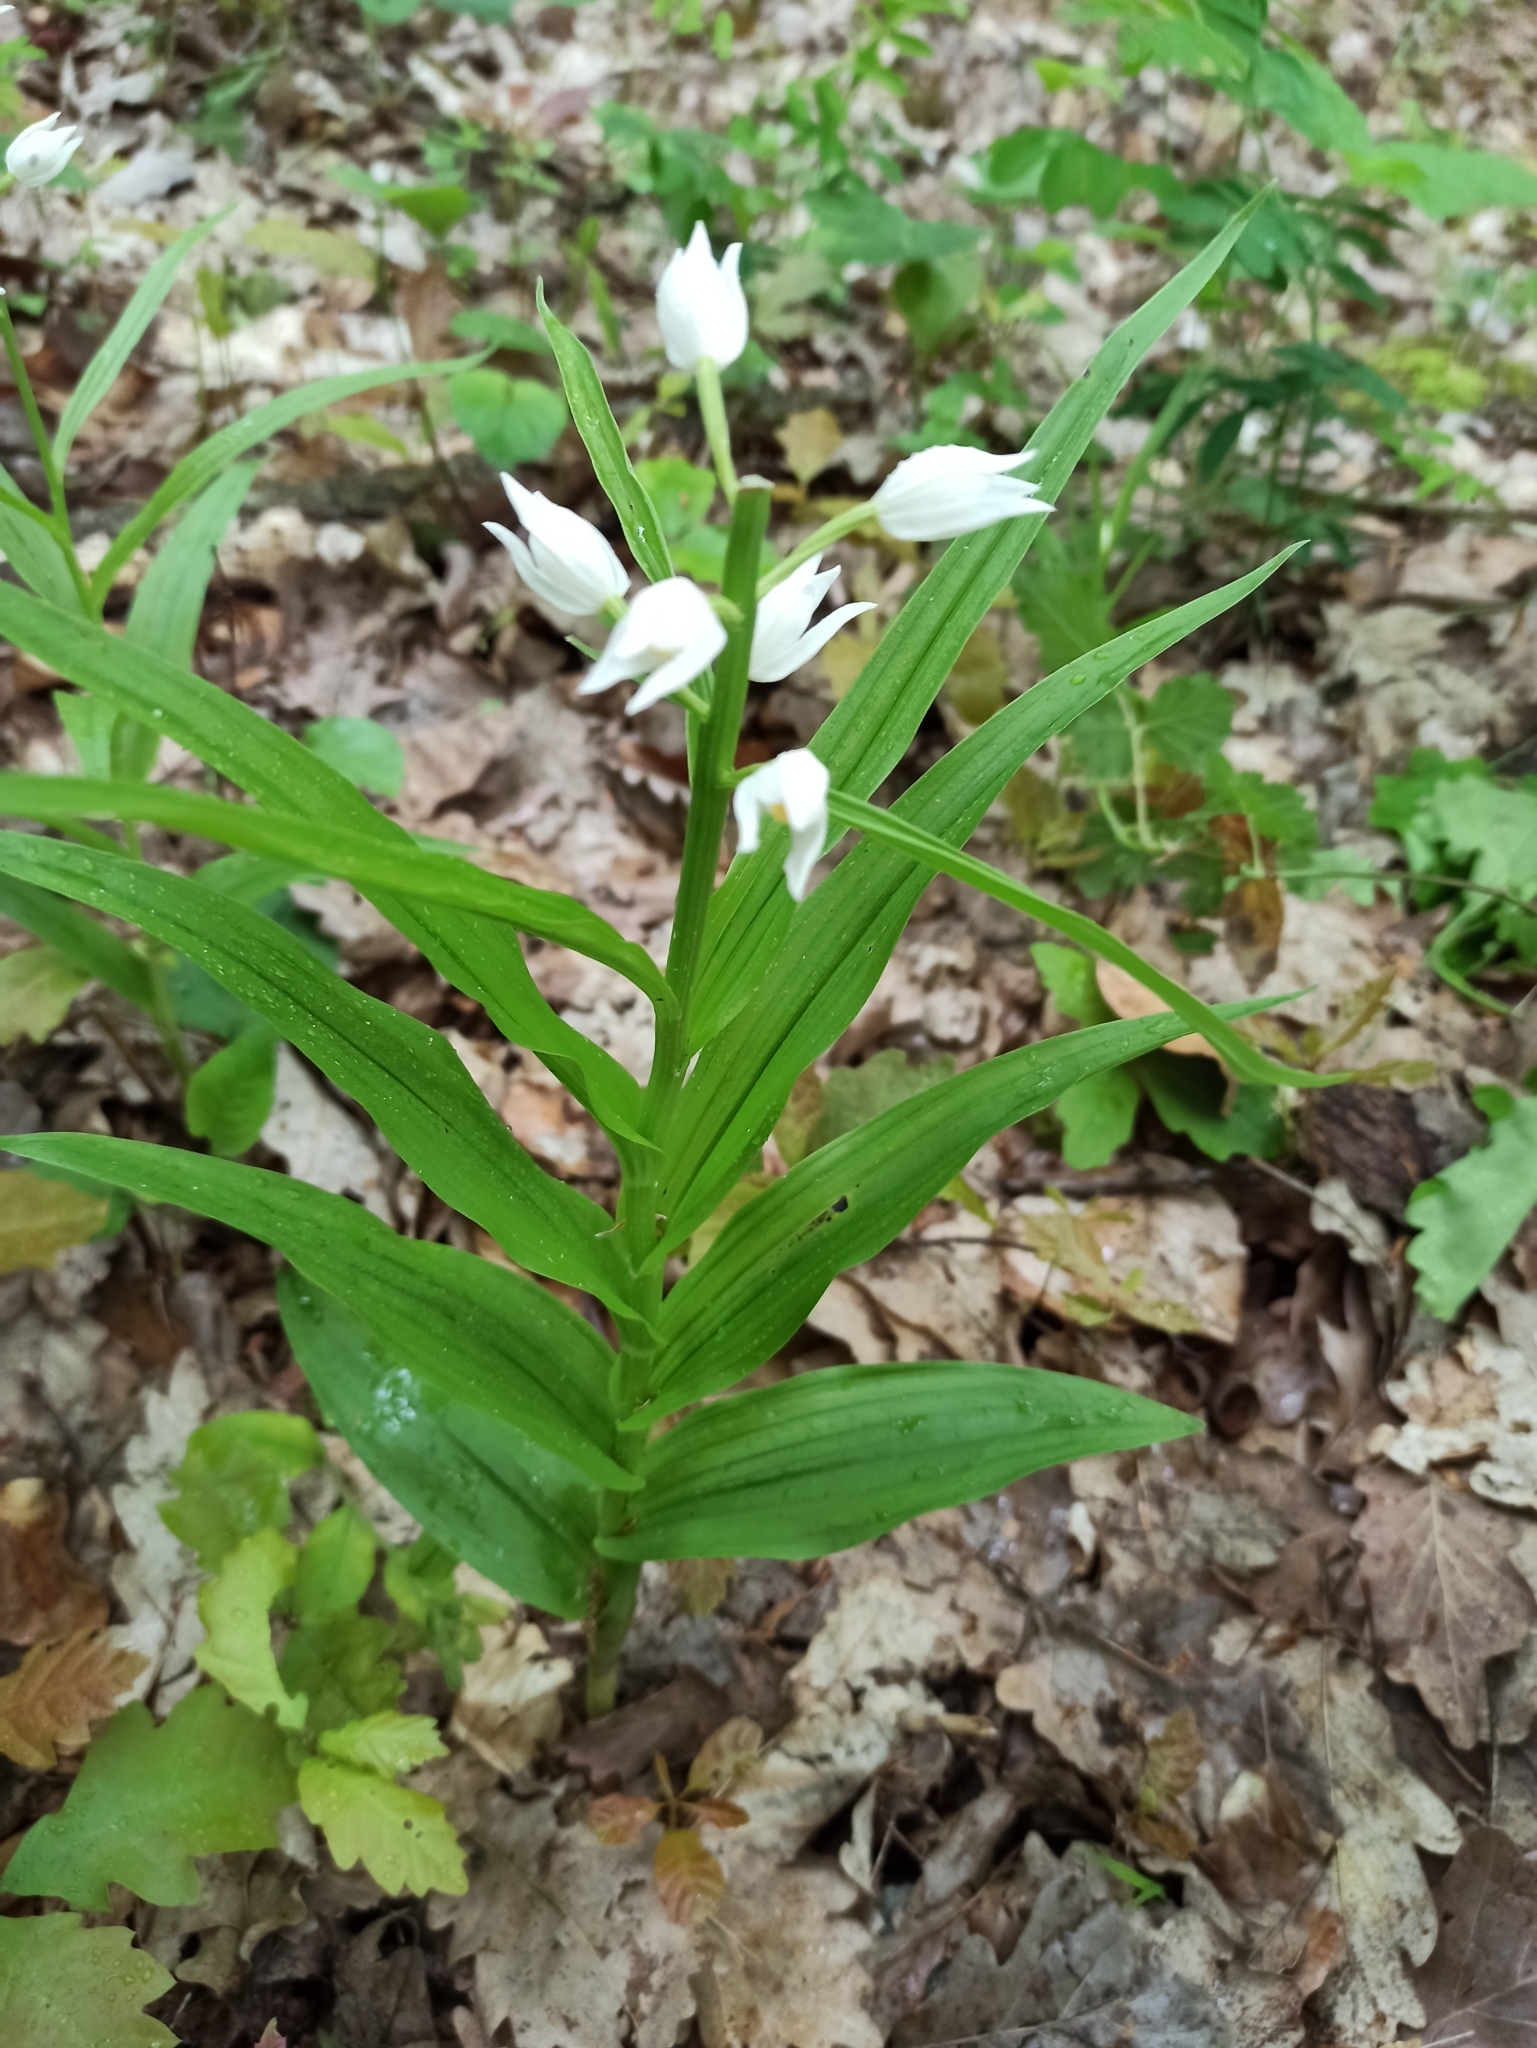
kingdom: Plantae
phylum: Tracheophyta
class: Liliopsida
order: Asparagales
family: Orchidaceae
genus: Cephalanthera
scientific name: Cephalanthera longifolia
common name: Narrow-leaved helleborine
